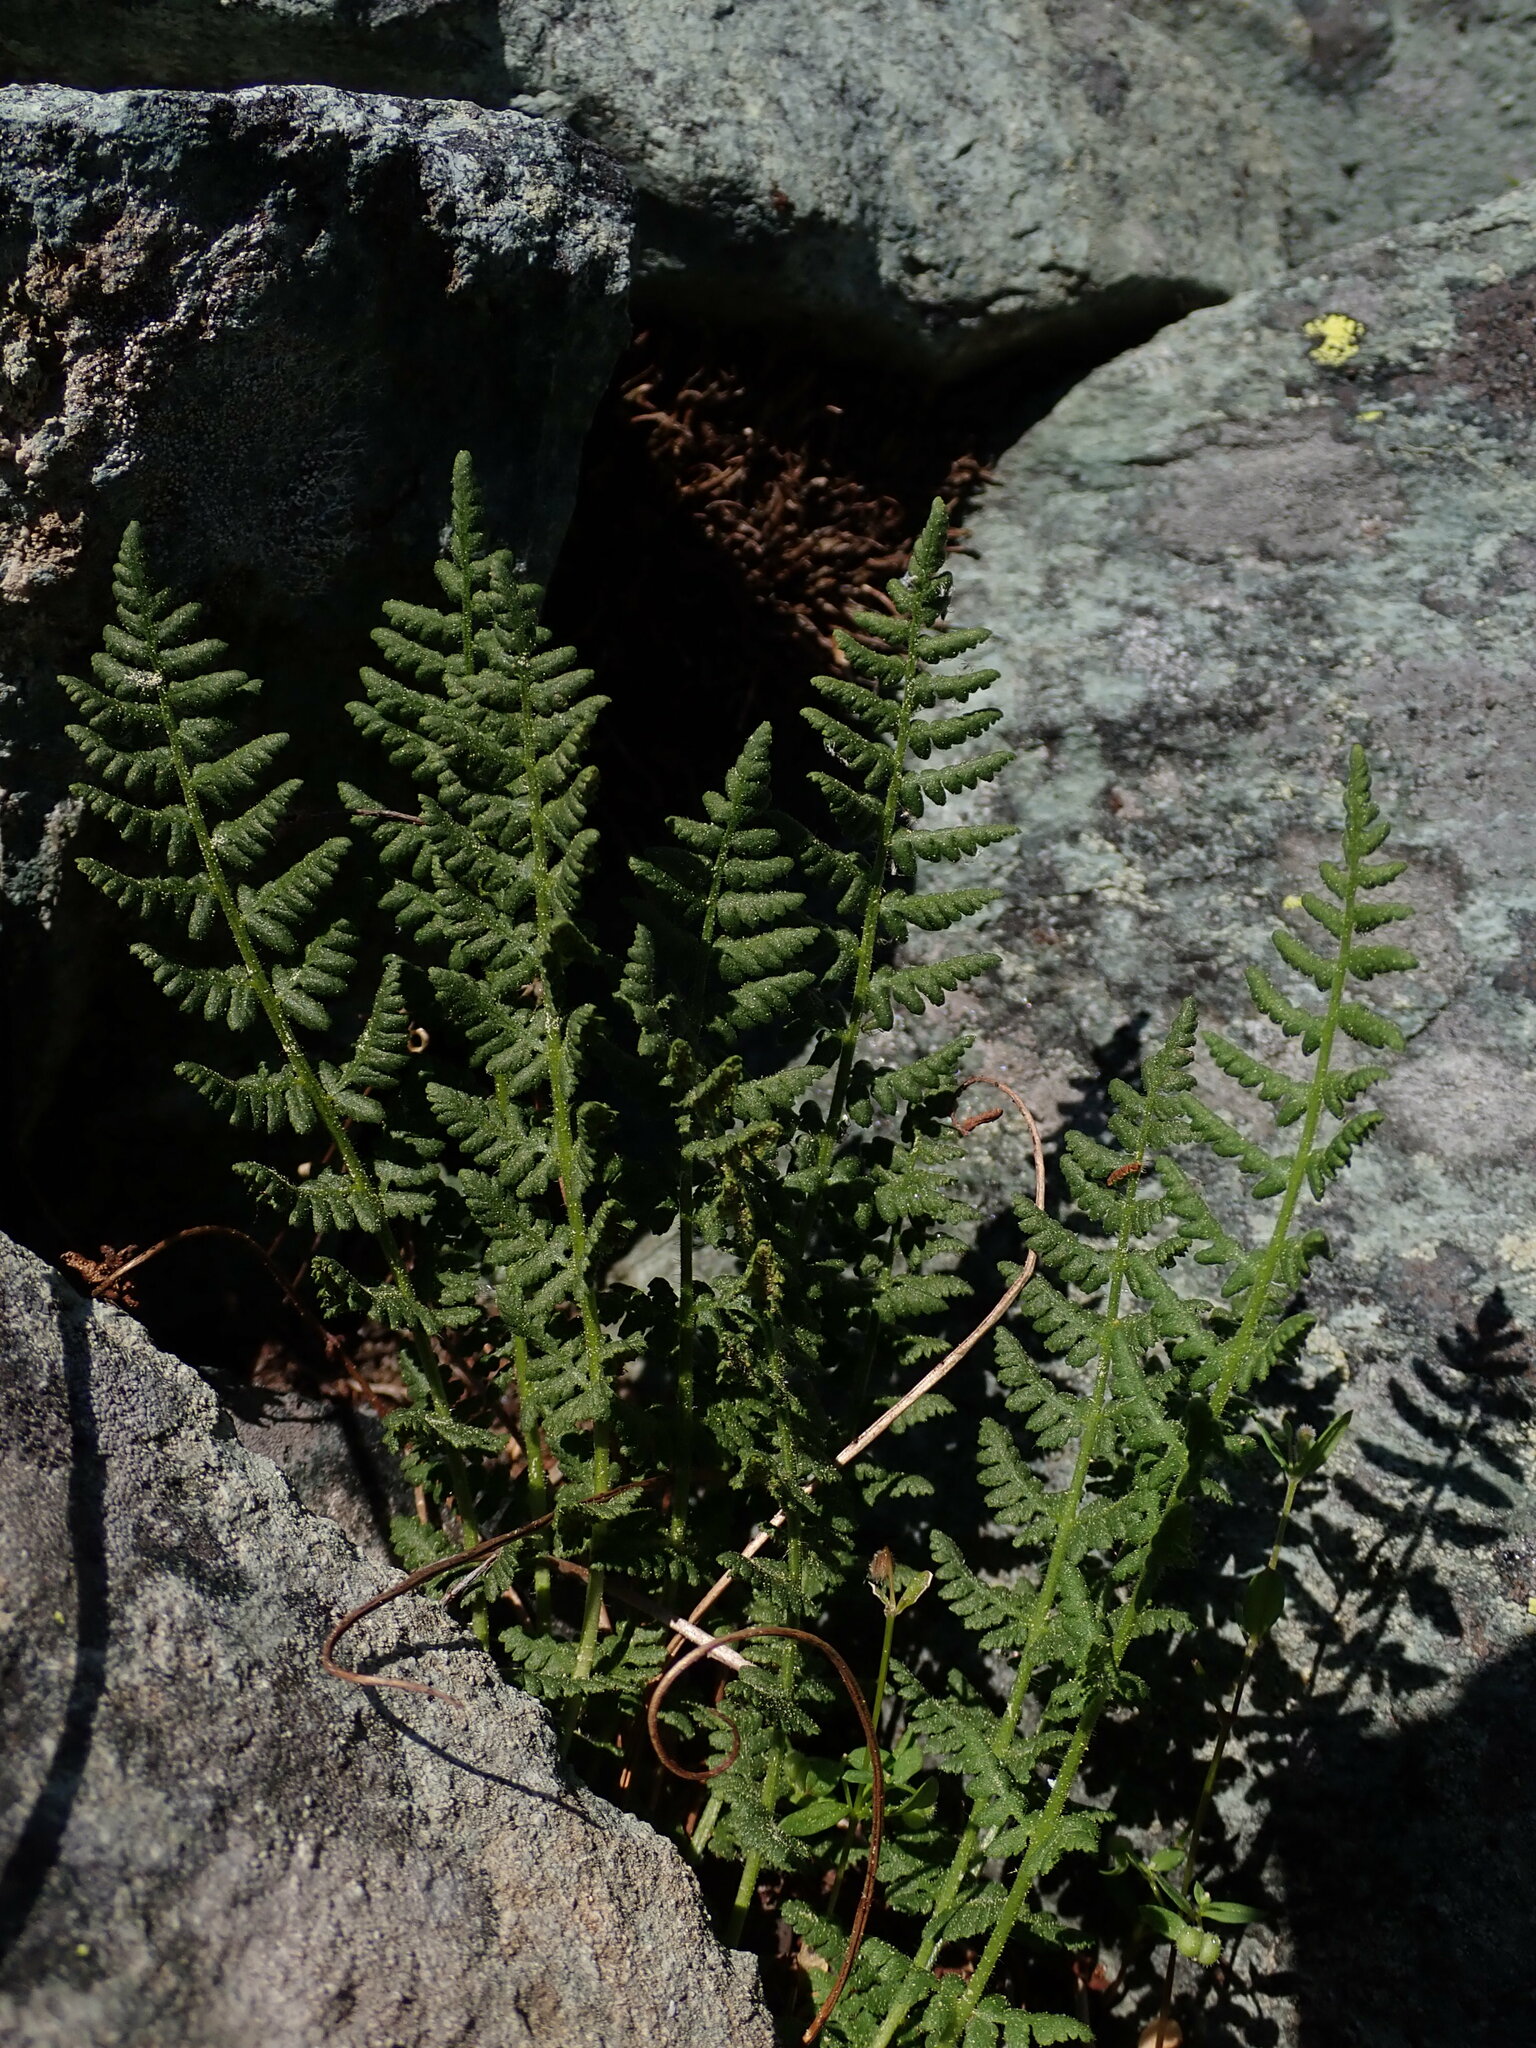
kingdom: Plantae
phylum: Tracheophyta
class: Polypodiopsida
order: Polypodiales
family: Woodsiaceae
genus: Physematium
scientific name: Physematium scopulinum
